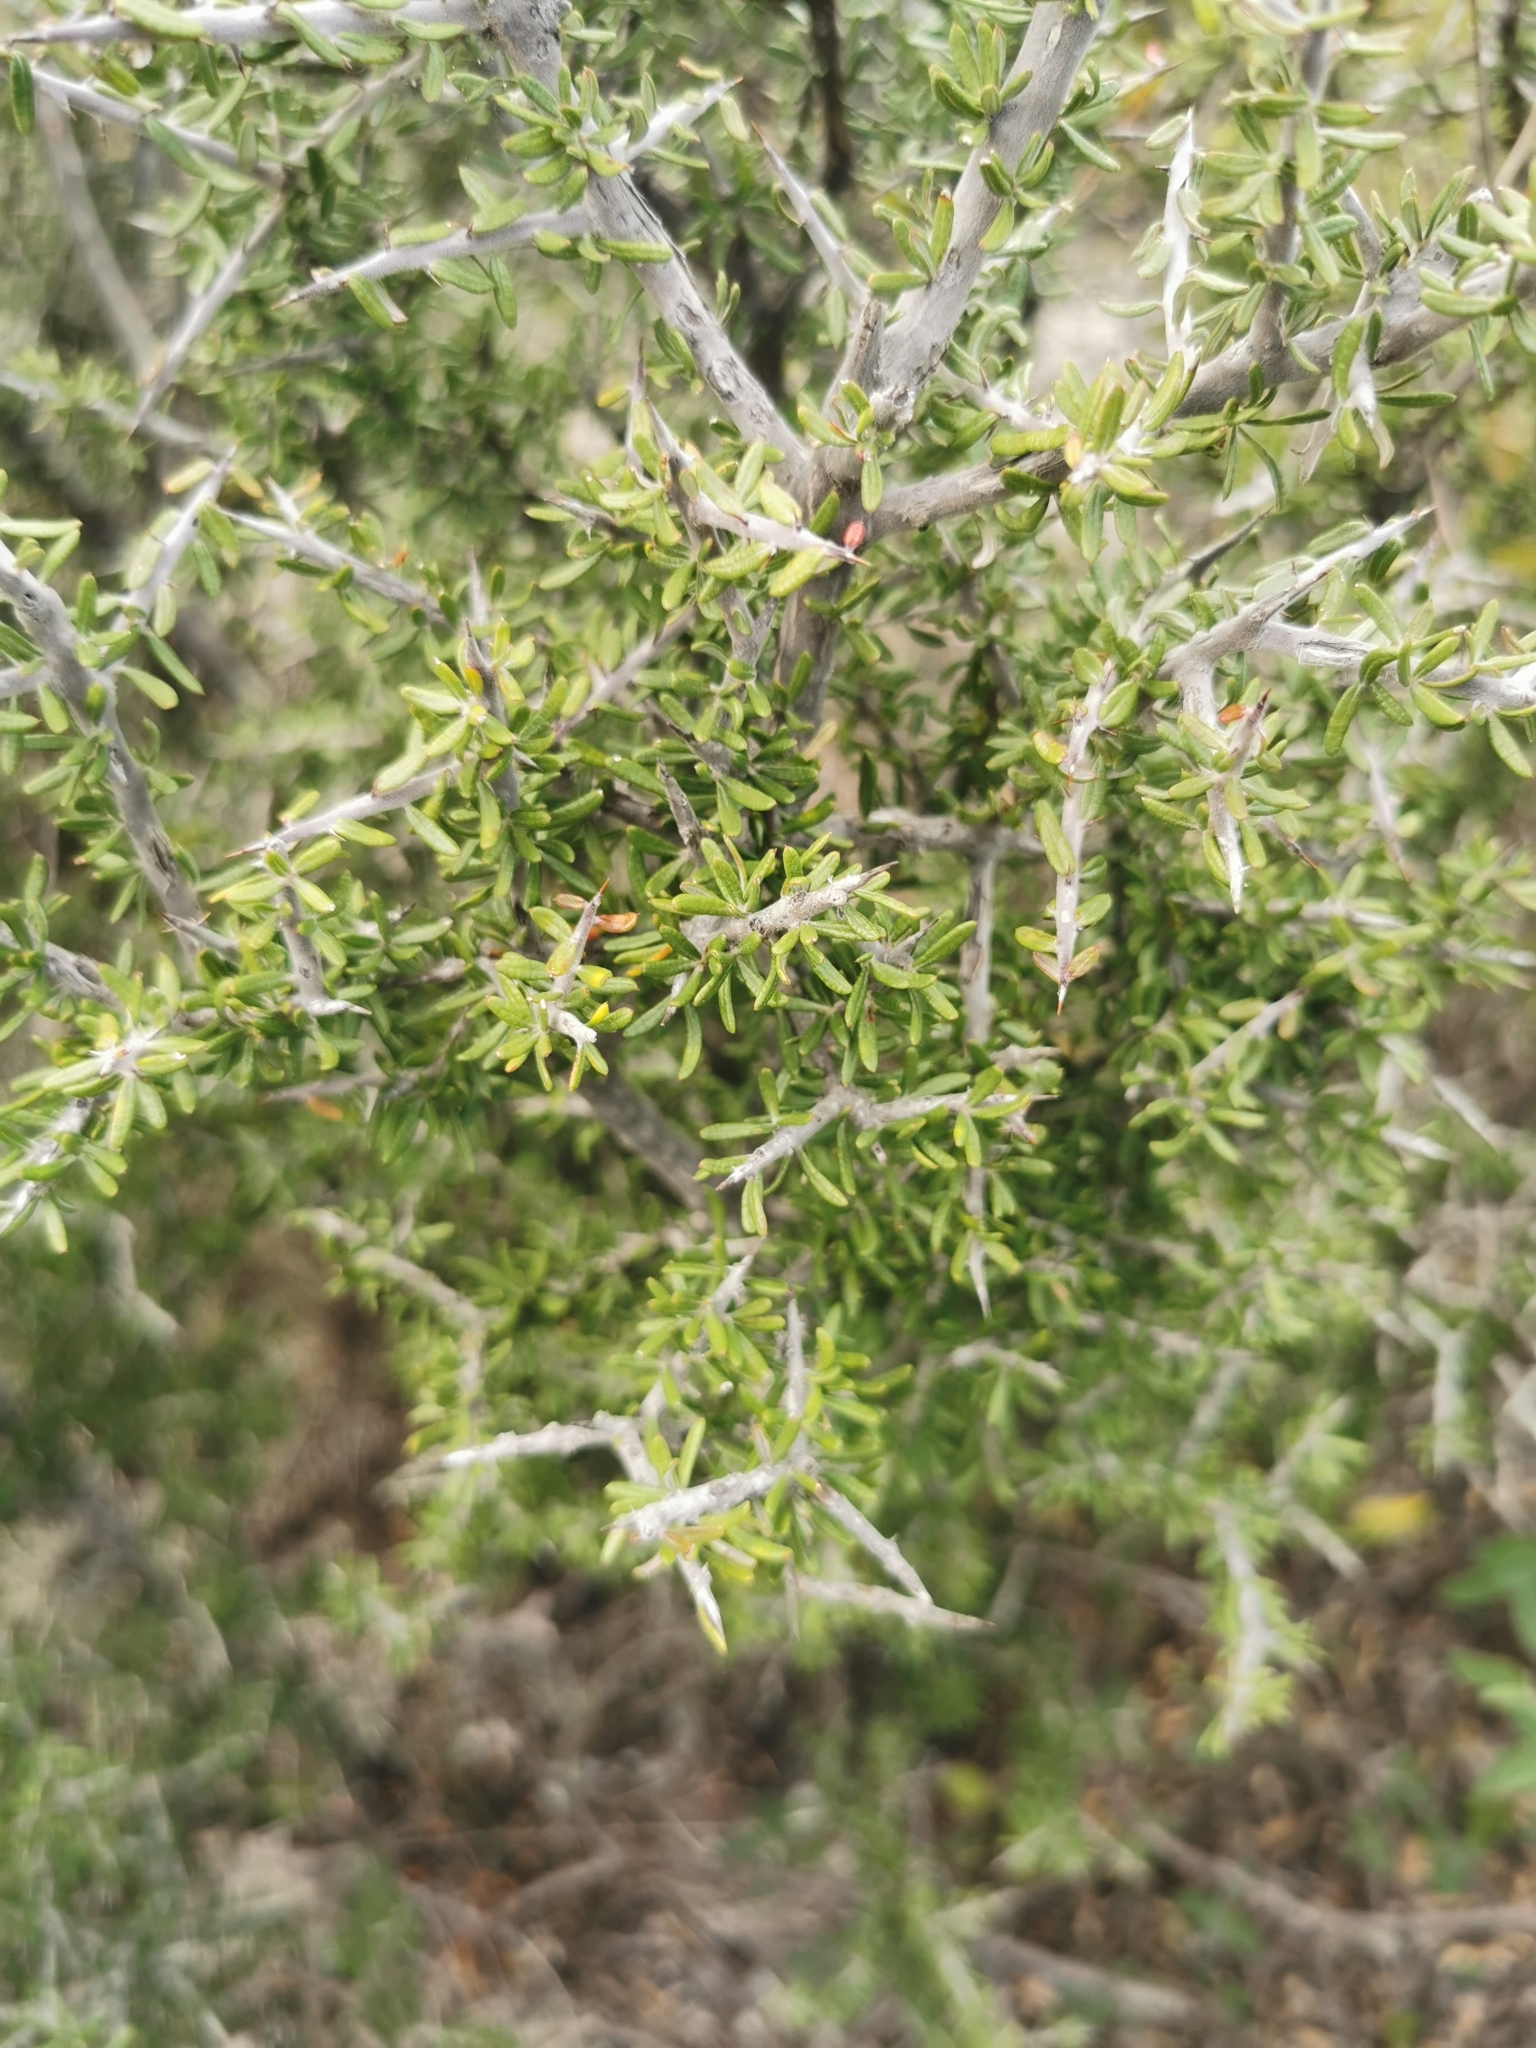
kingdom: Plantae
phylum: Tracheophyta
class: Magnoliopsida
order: Sapindales
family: Simaroubaceae
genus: Castela
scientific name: Castela erecta
